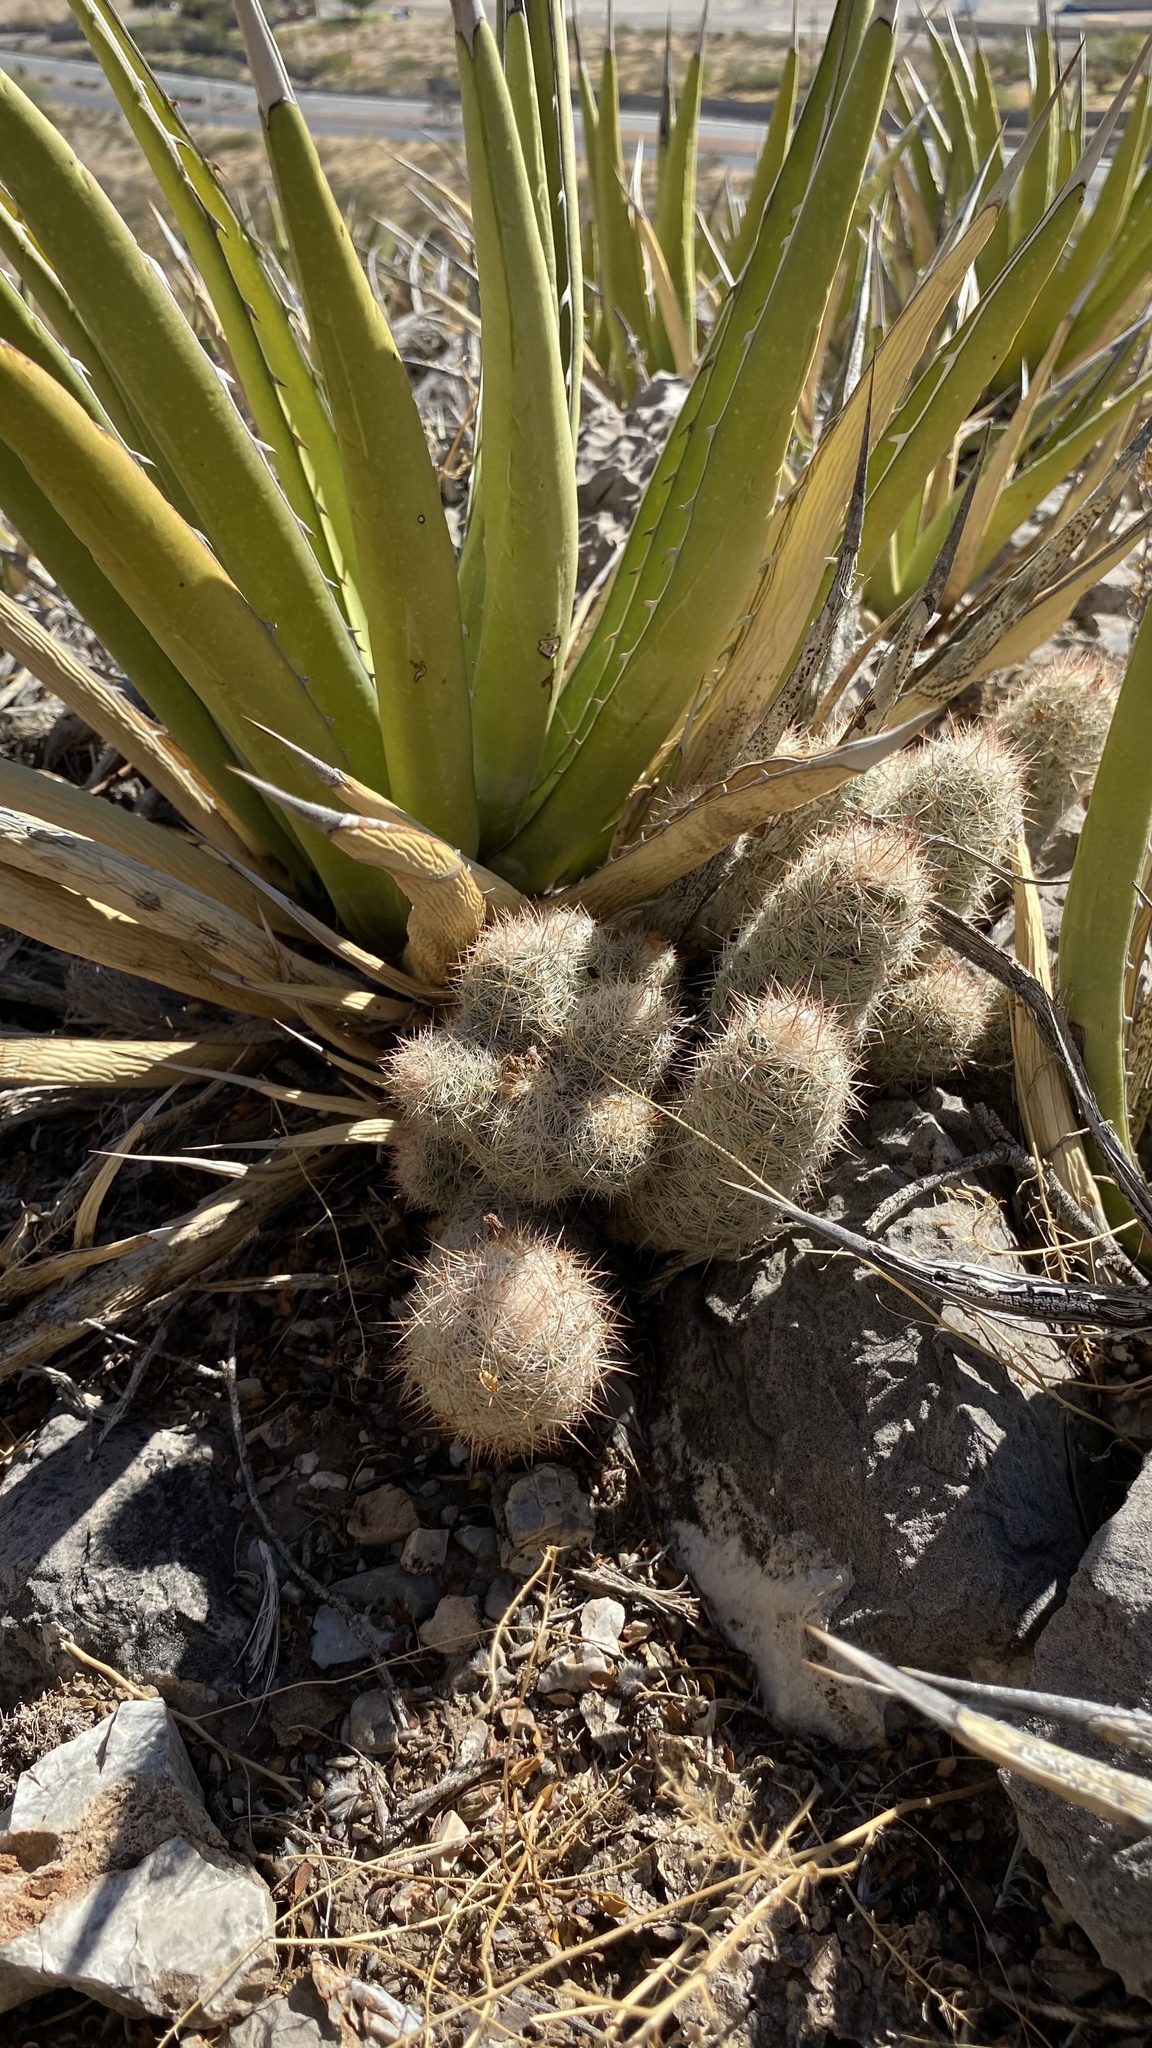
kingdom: Plantae
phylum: Tracheophyta
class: Magnoliopsida
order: Caryophyllales
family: Cactaceae
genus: Pelecyphora
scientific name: Pelecyphora tuberculosa
